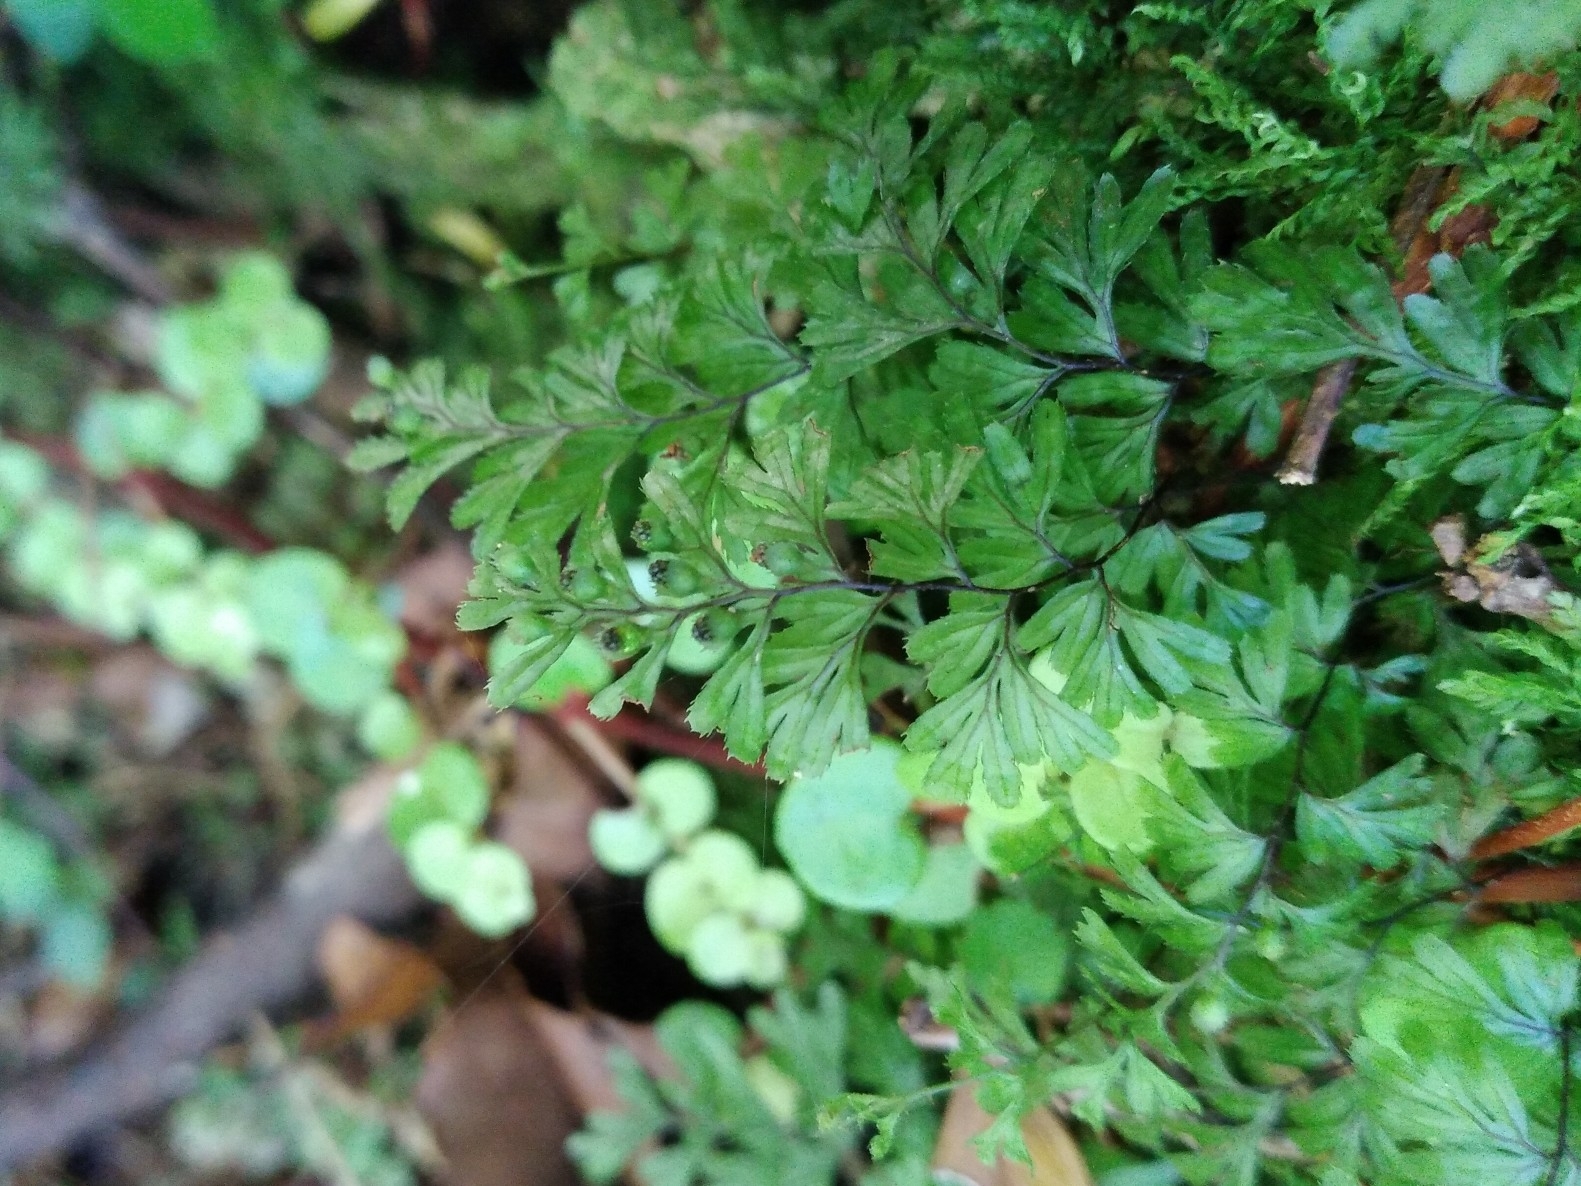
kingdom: Plantae
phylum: Tracheophyta
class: Polypodiopsida
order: Hymenophyllales
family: Hymenophyllaceae
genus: Hymenophyllum
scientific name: Hymenophyllum revolutum
